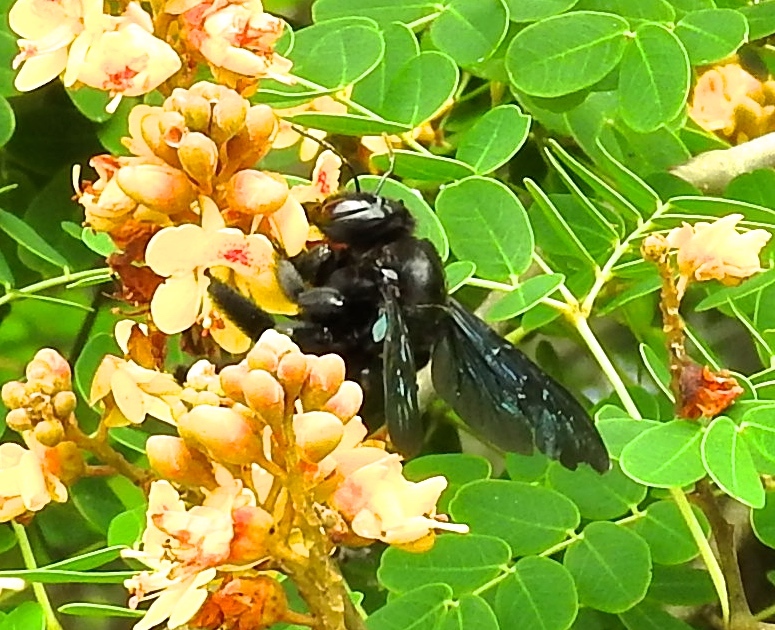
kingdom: Animalia
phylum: Arthropoda
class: Insecta
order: Hymenoptera
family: Apidae
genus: Xylocopa
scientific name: Xylocopa fimbriata
